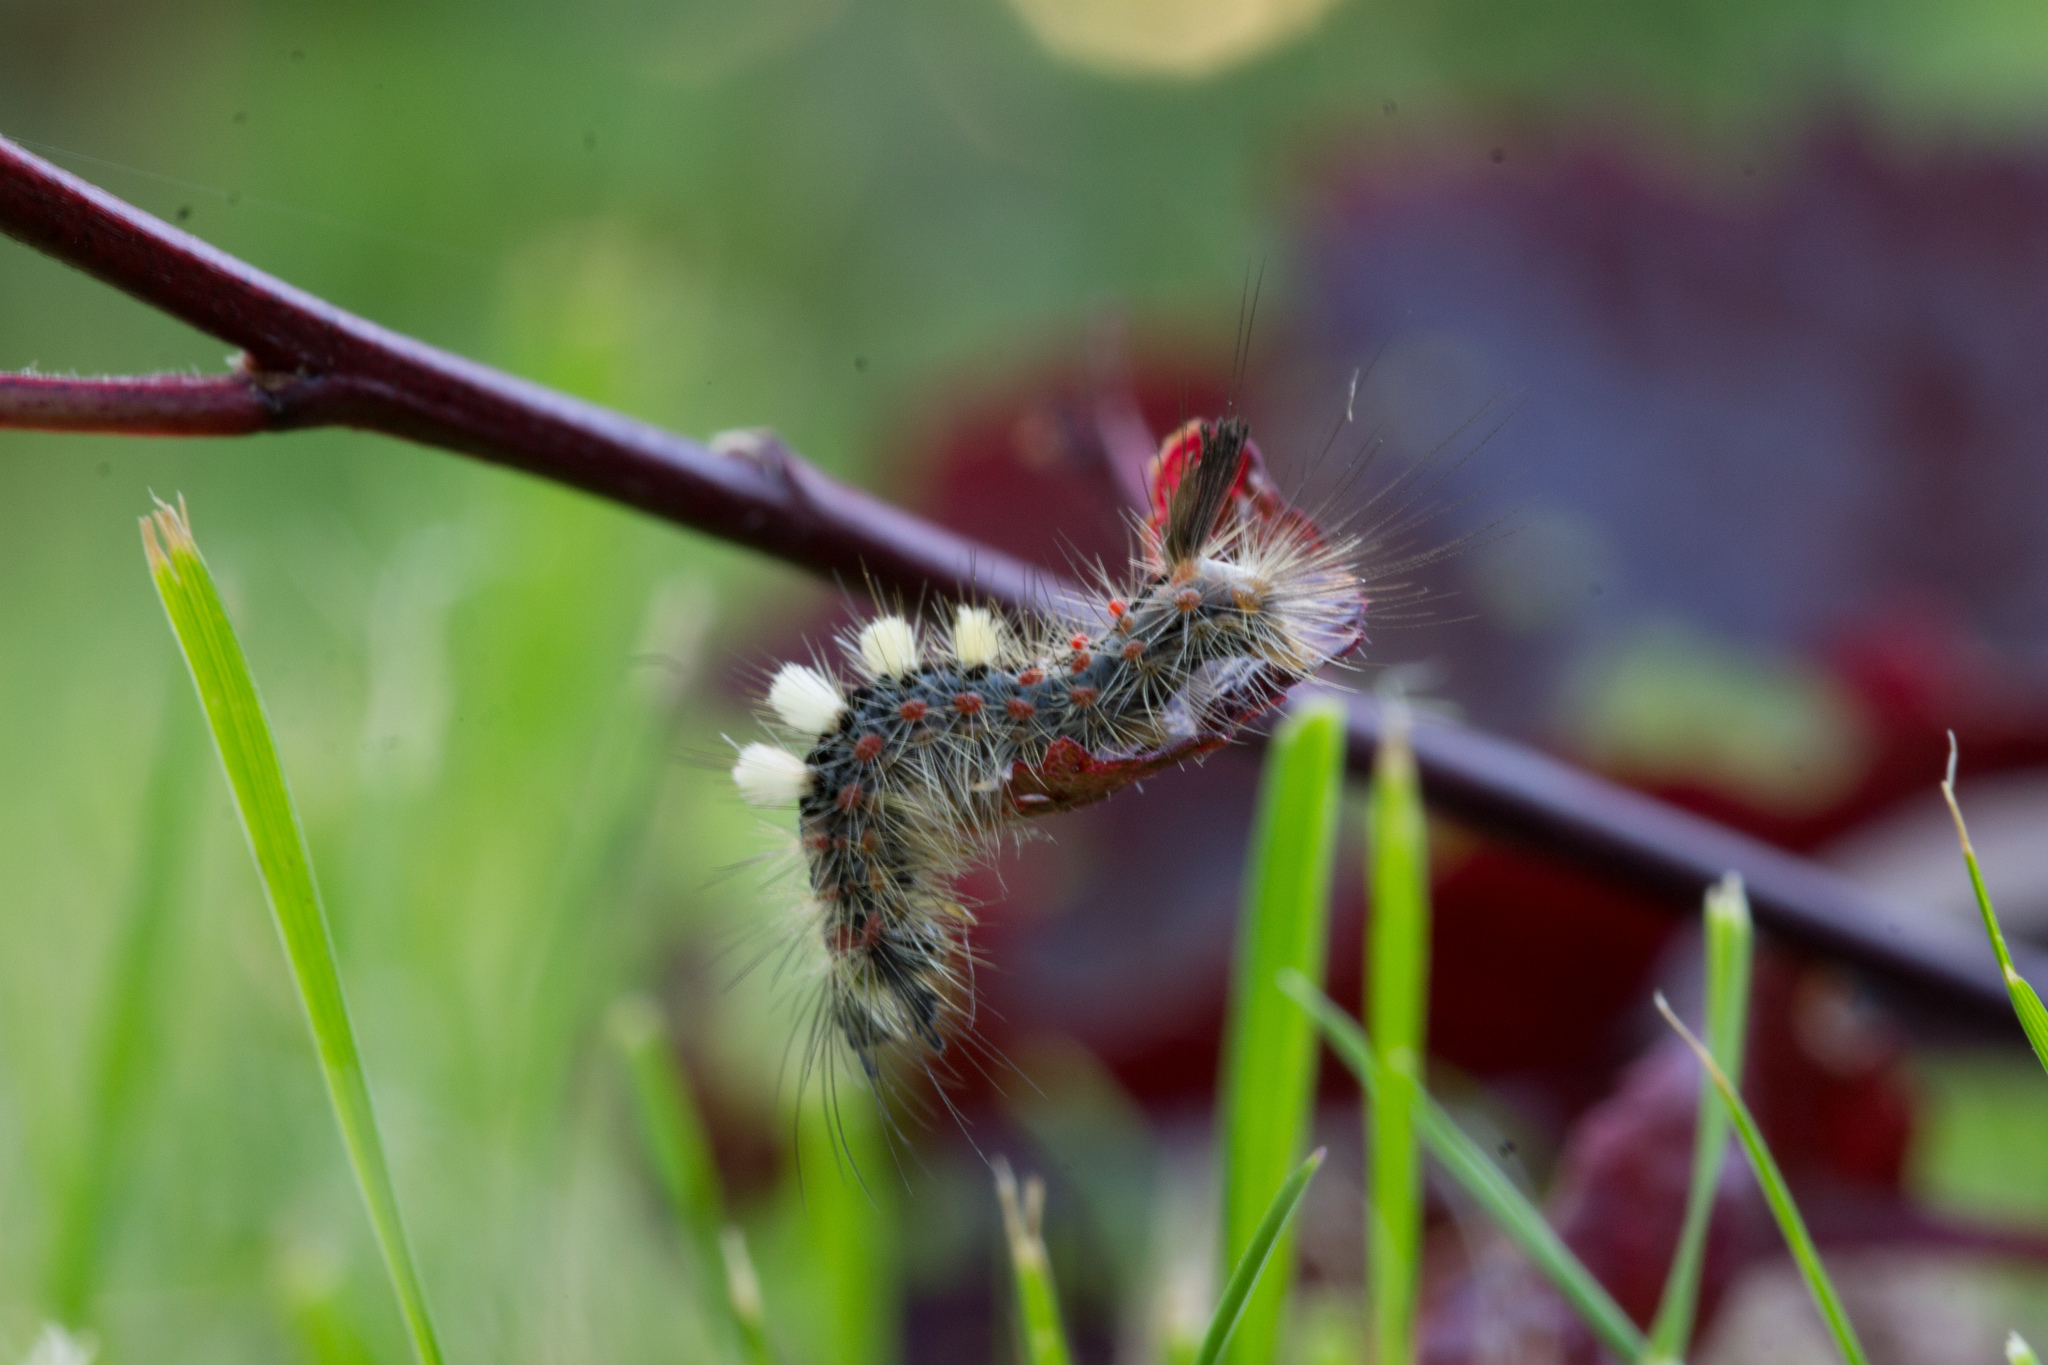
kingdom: Animalia
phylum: Arthropoda
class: Insecta
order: Lepidoptera
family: Erebidae
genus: Orgyia
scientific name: Orgyia antiqua
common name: Vapourer
